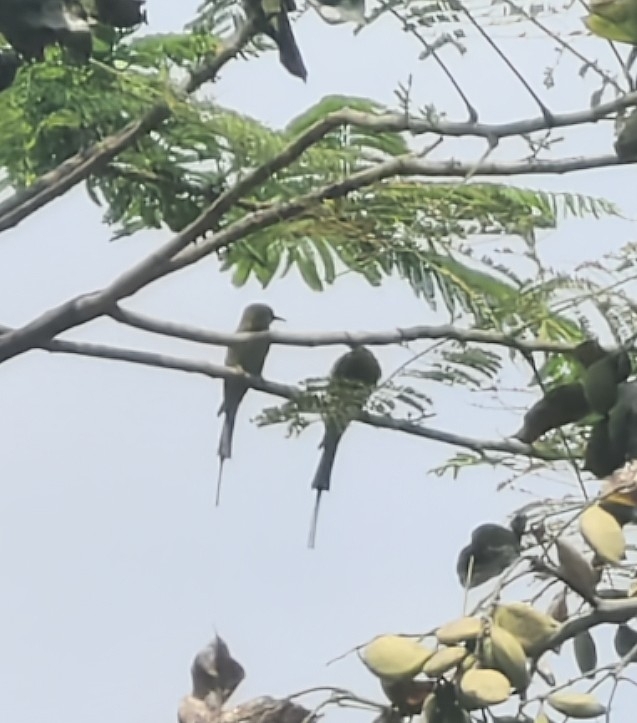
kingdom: Animalia
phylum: Chordata
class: Aves
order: Coraciiformes
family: Meropidae
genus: Merops
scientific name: Merops orientalis
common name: Green bee-eater
